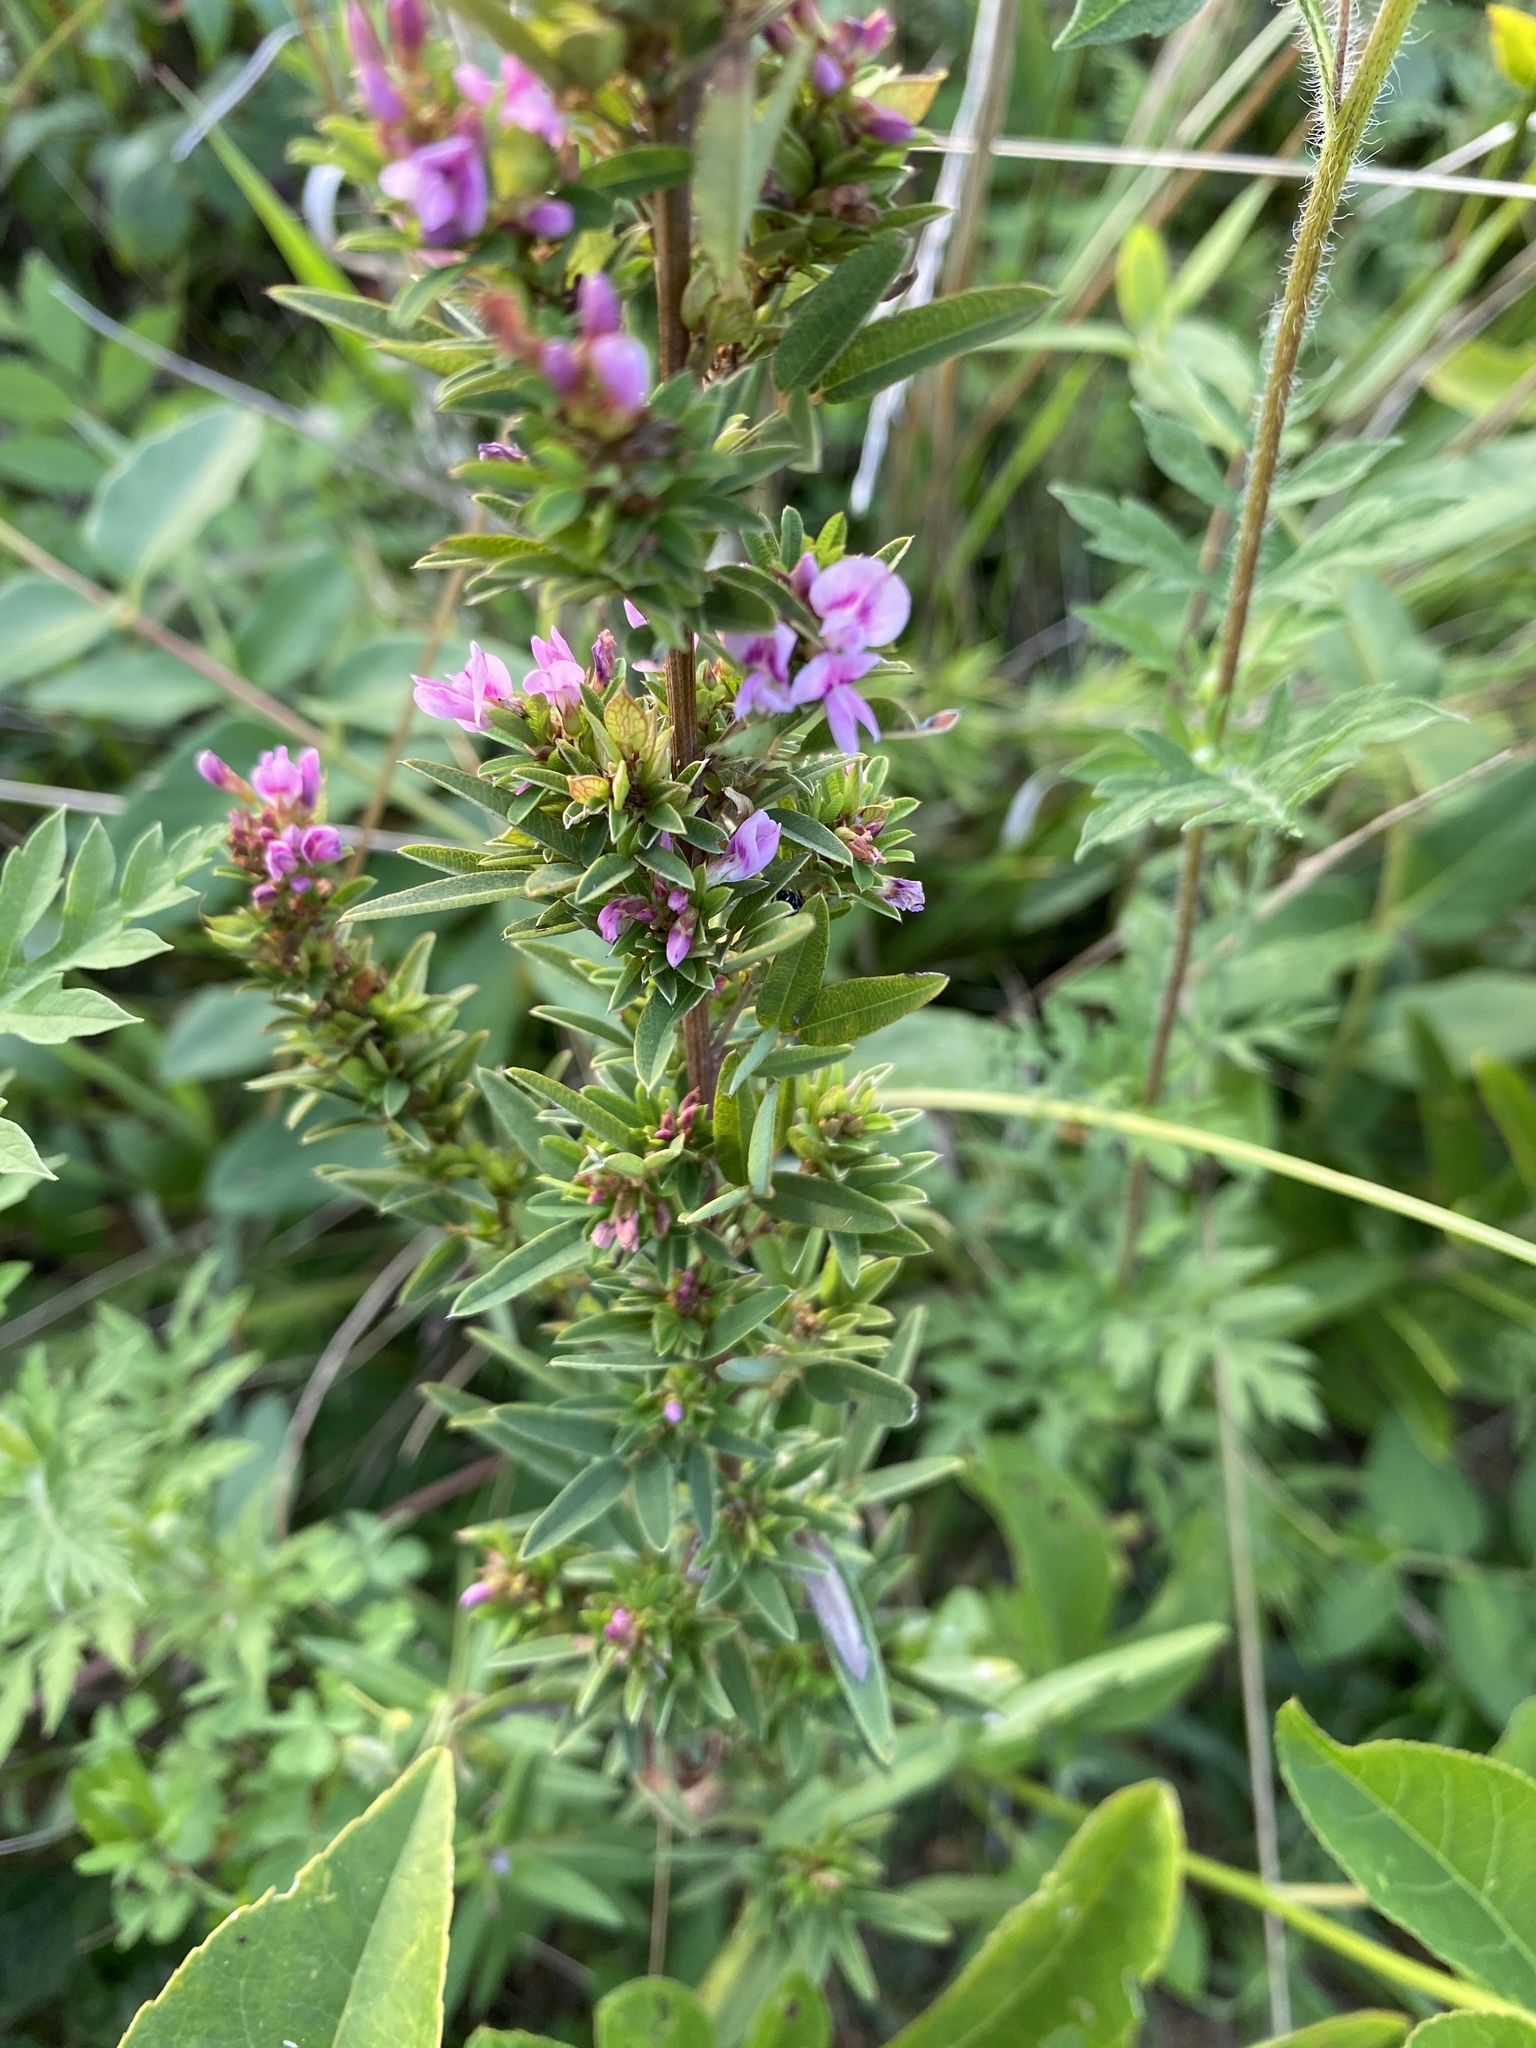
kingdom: Plantae
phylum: Tracheophyta
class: Magnoliopsida
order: Fabales
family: Fabaceae
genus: Lespedeza
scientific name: Lespedeza virginica
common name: Slender bush-clover
